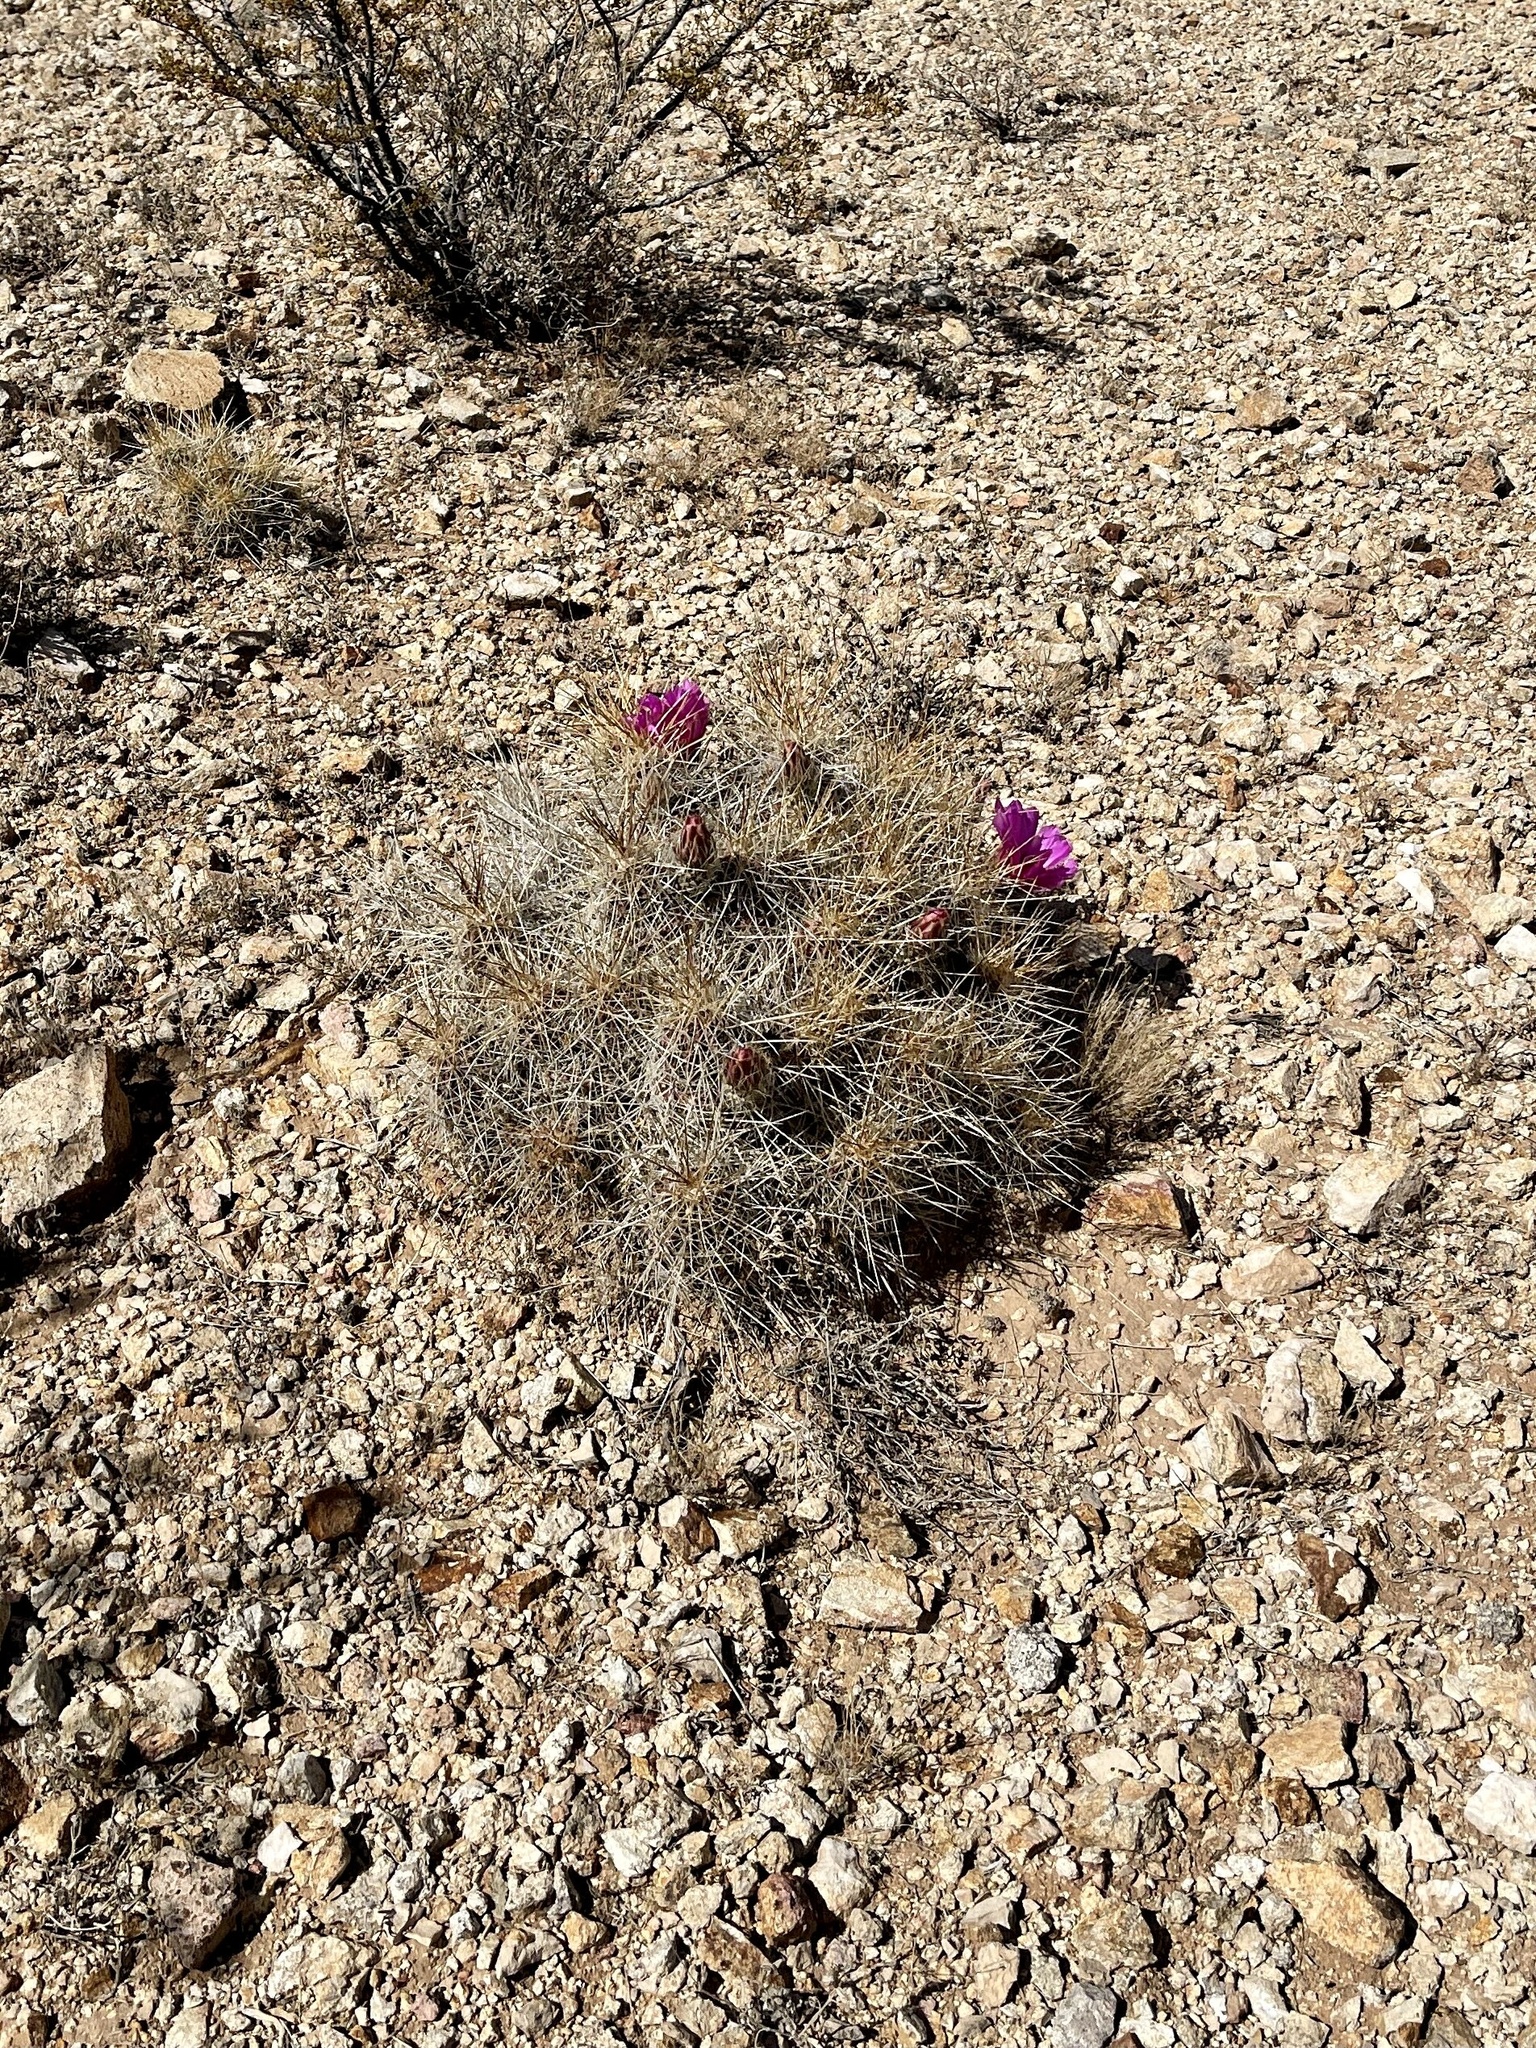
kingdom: Plantae
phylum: Tracheophyta
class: Magnoliopsida
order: Caryophyllales
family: Cactaceae
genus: Echinocereus
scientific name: Echinocereus stramineus
